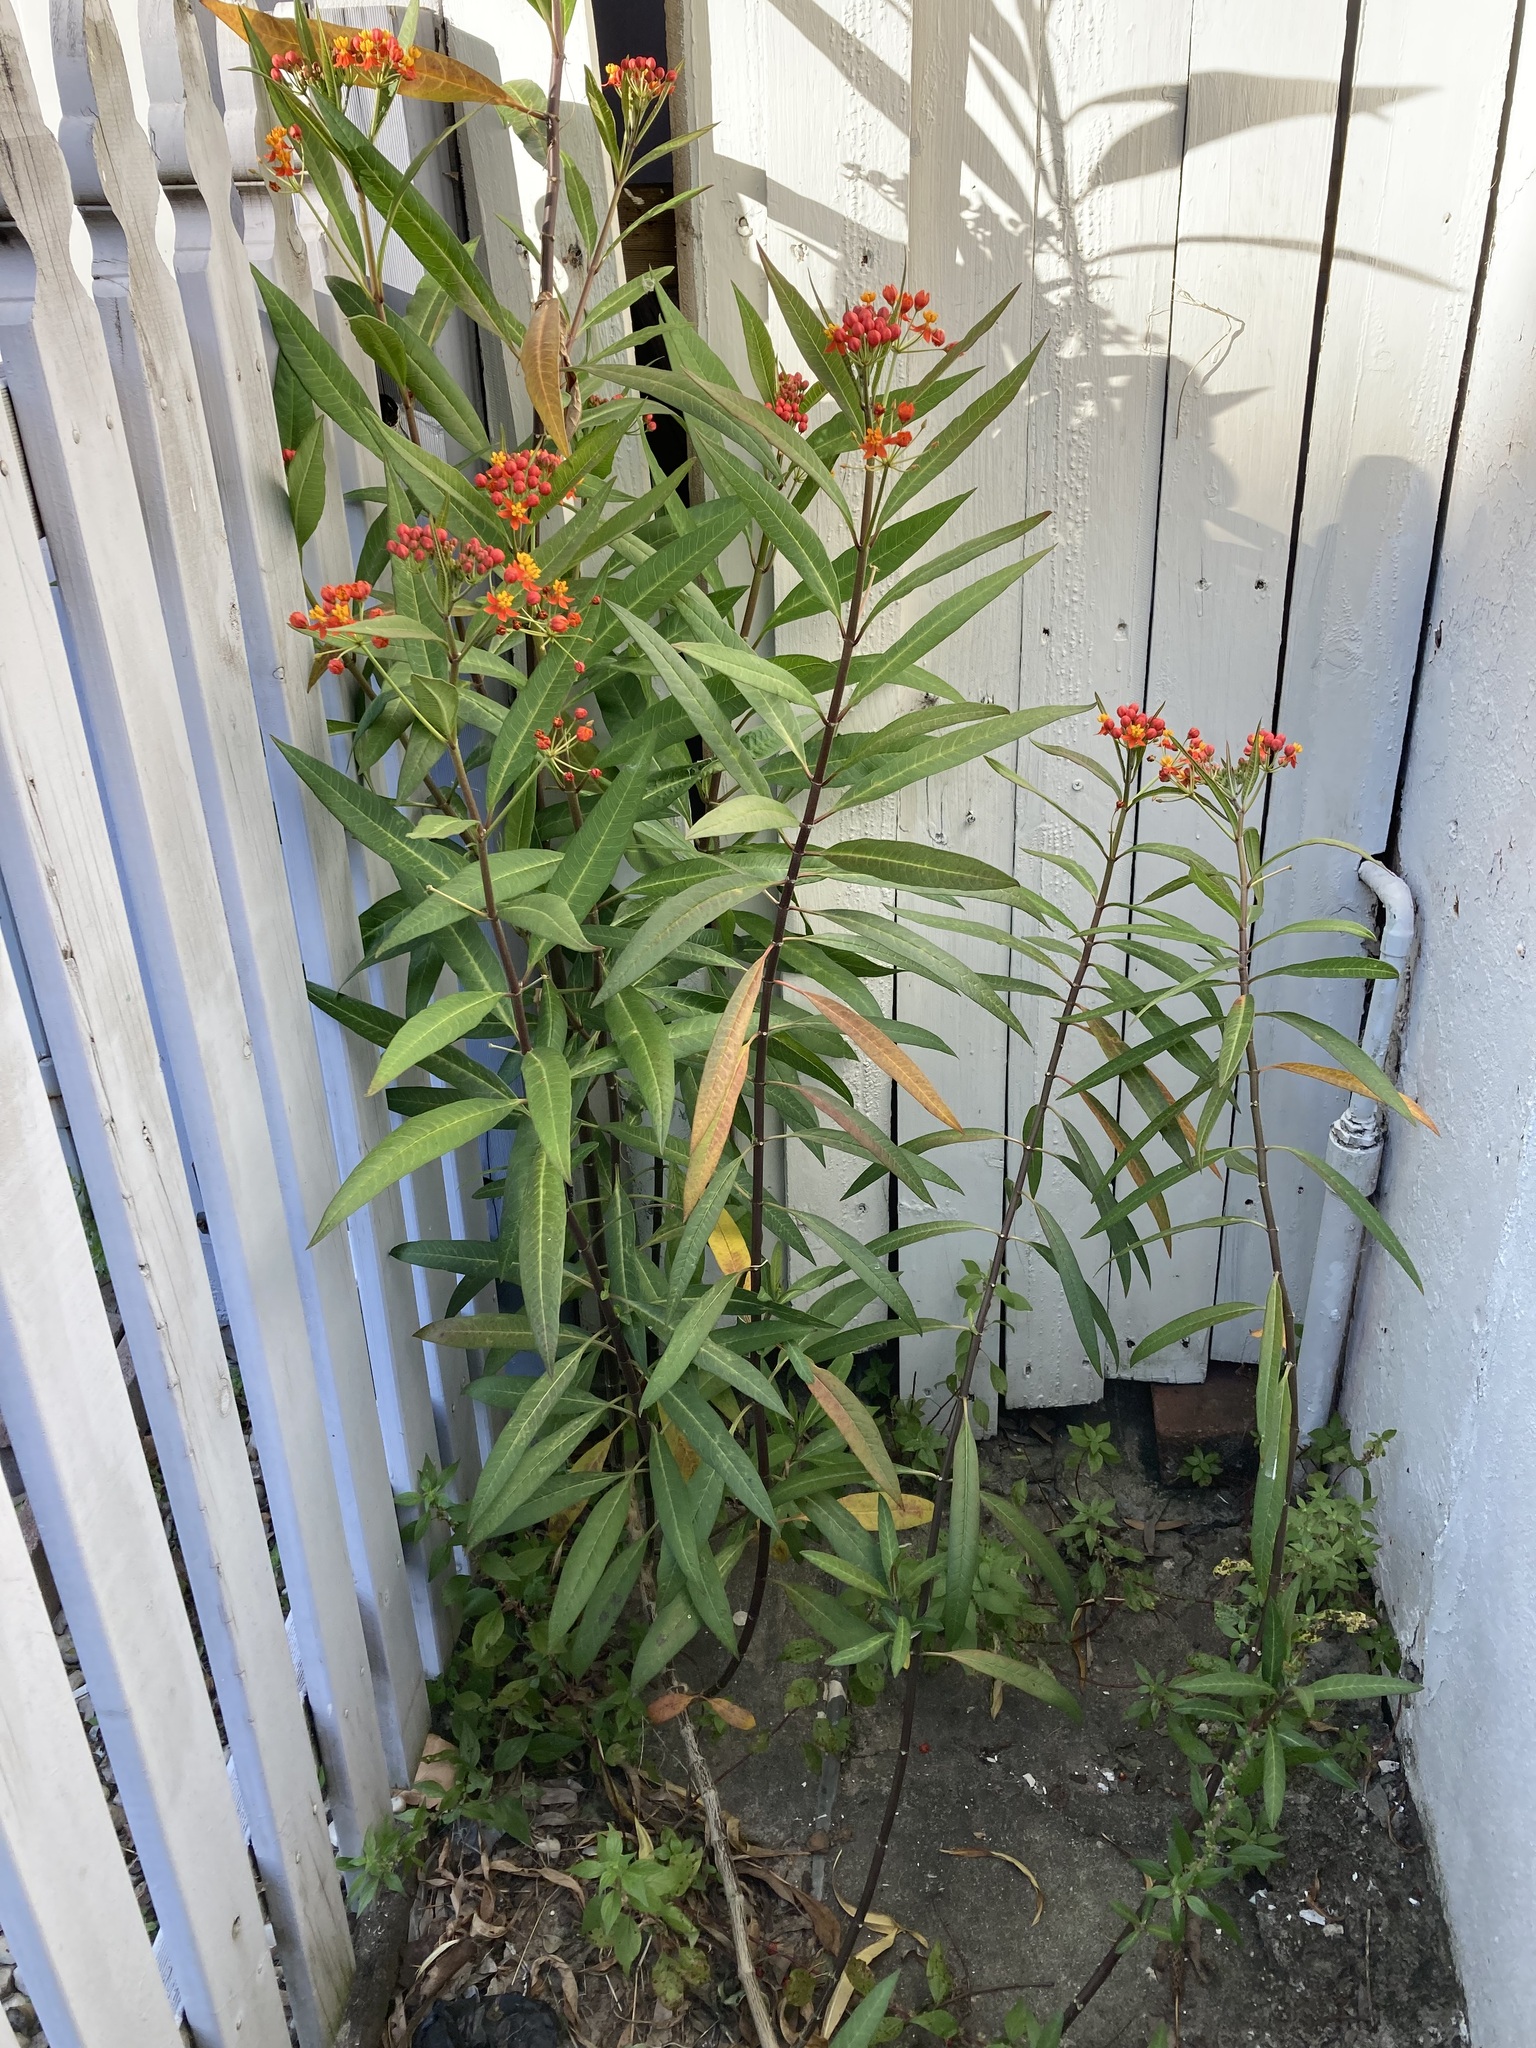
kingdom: Plantae
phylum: Tracheophyta
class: Magnoliopsida
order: Gentianales
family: Apocynaceae
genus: Asclepias
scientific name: Asclepias curassavica
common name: Bloodflower
